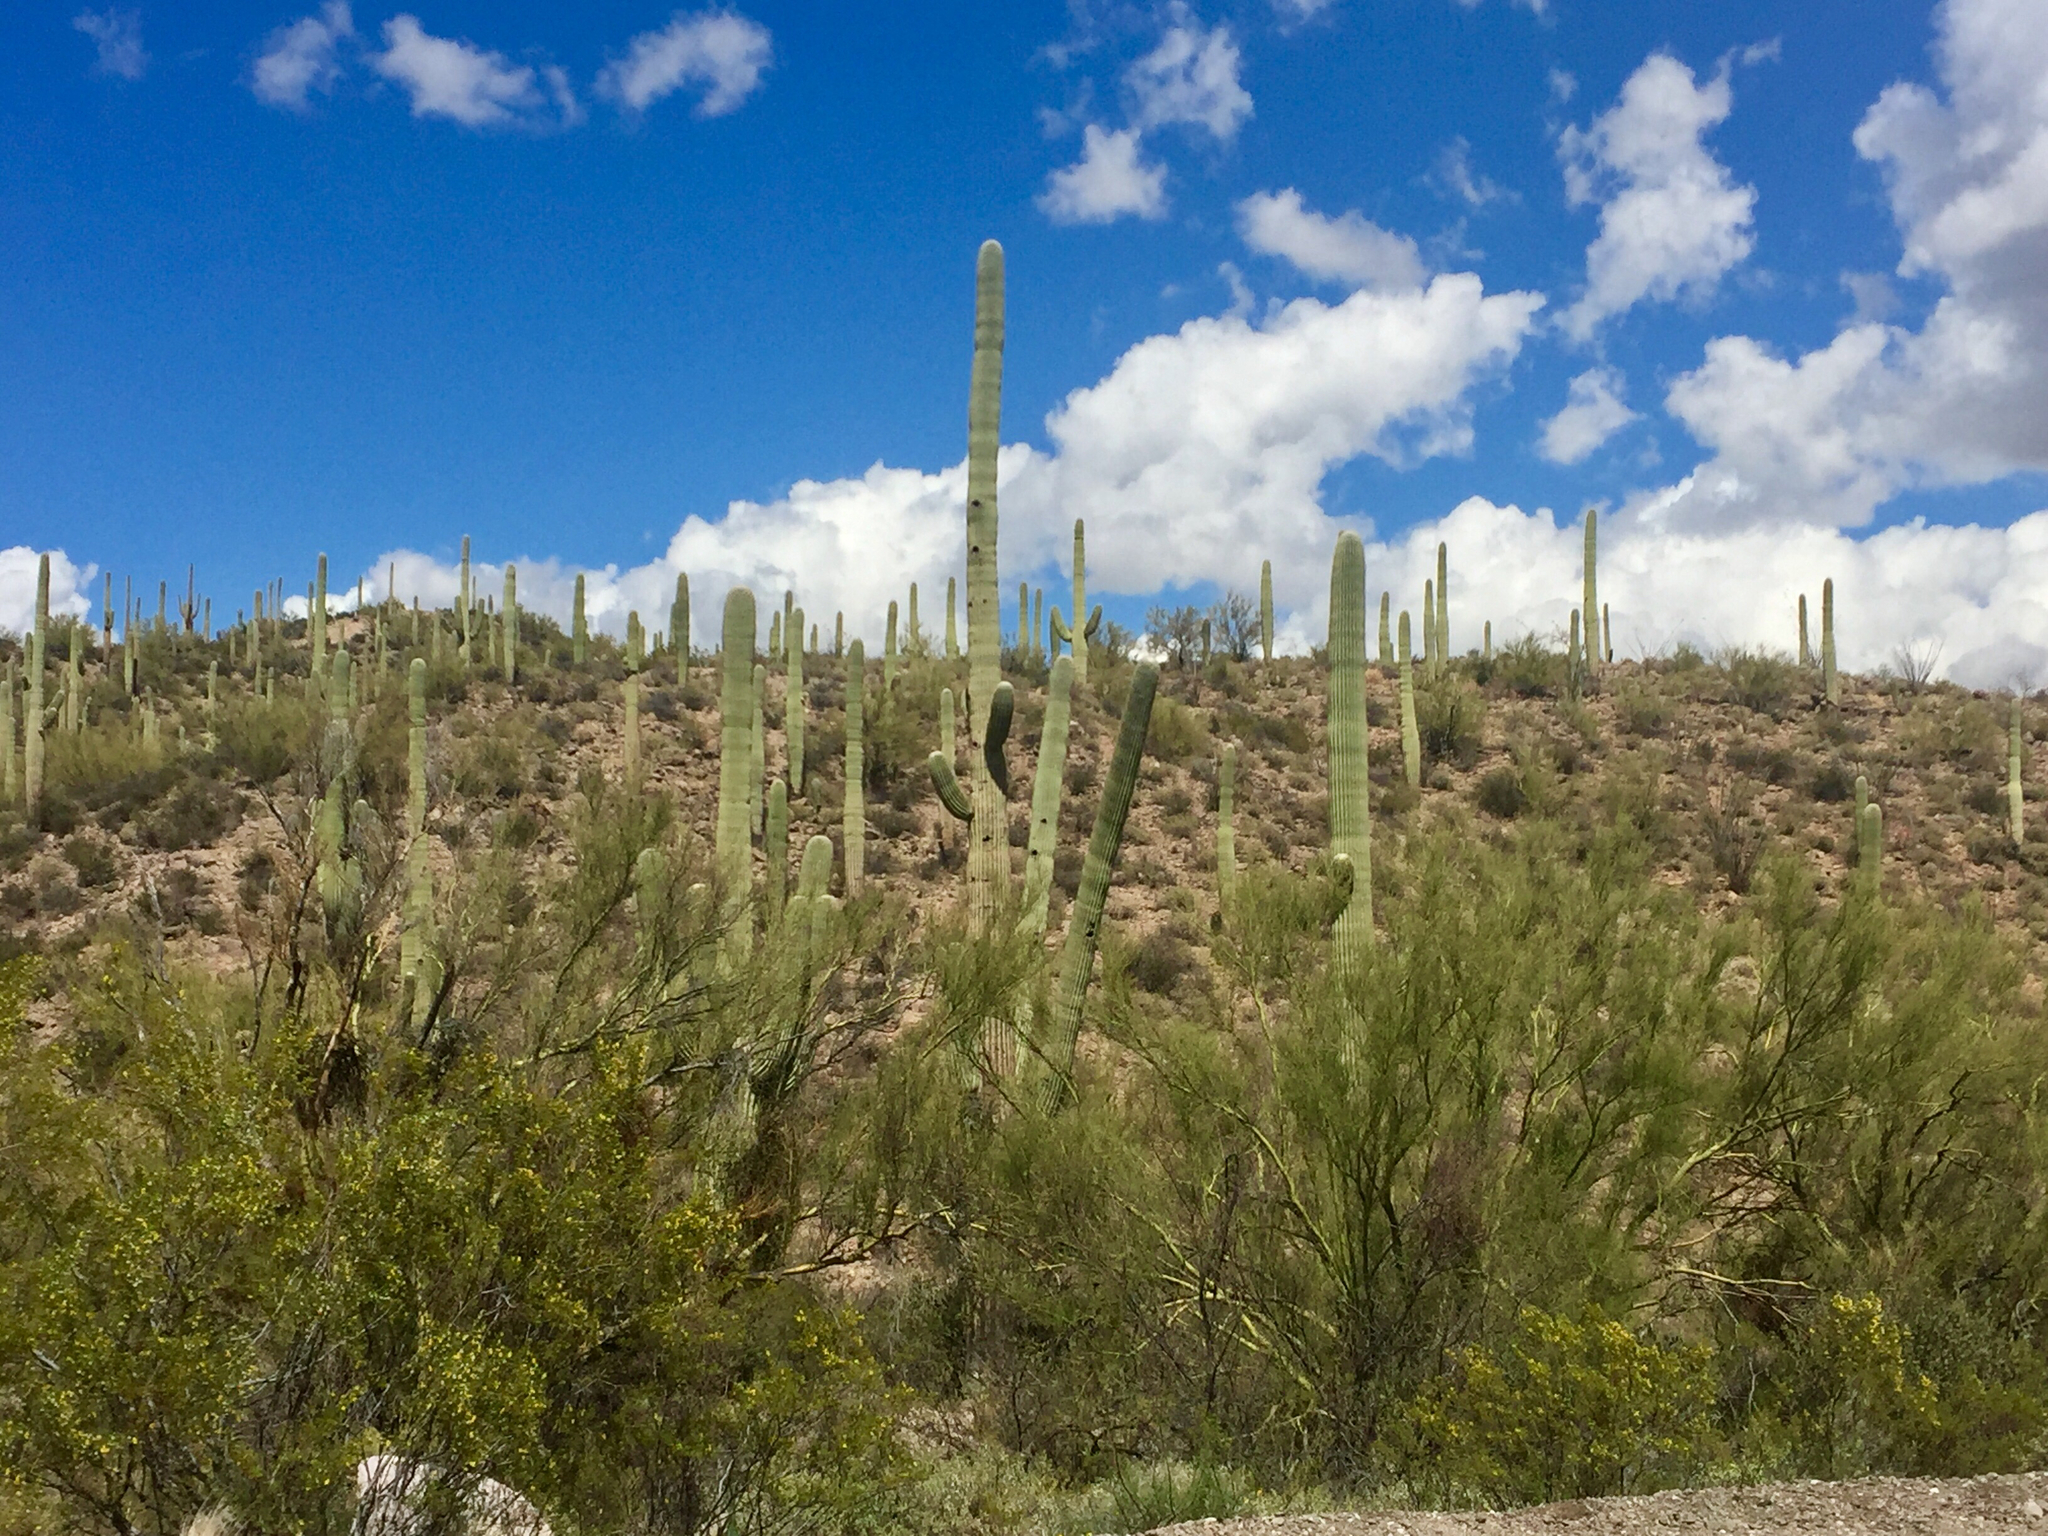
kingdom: Plantae
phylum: Tracheophyta
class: Magnoliopsida
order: Caryophyllales
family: Cactaceae
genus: Carnegiea
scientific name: Carnegiea gigantea
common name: Saguaro
